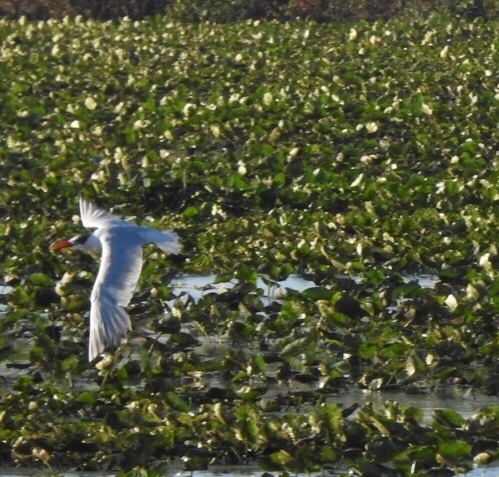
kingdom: Animalia
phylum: Chordata
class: Aves
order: Charadriiformes
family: Laridae
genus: Hydroprogne
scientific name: Hydroprogne caspia
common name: Caspian tern
